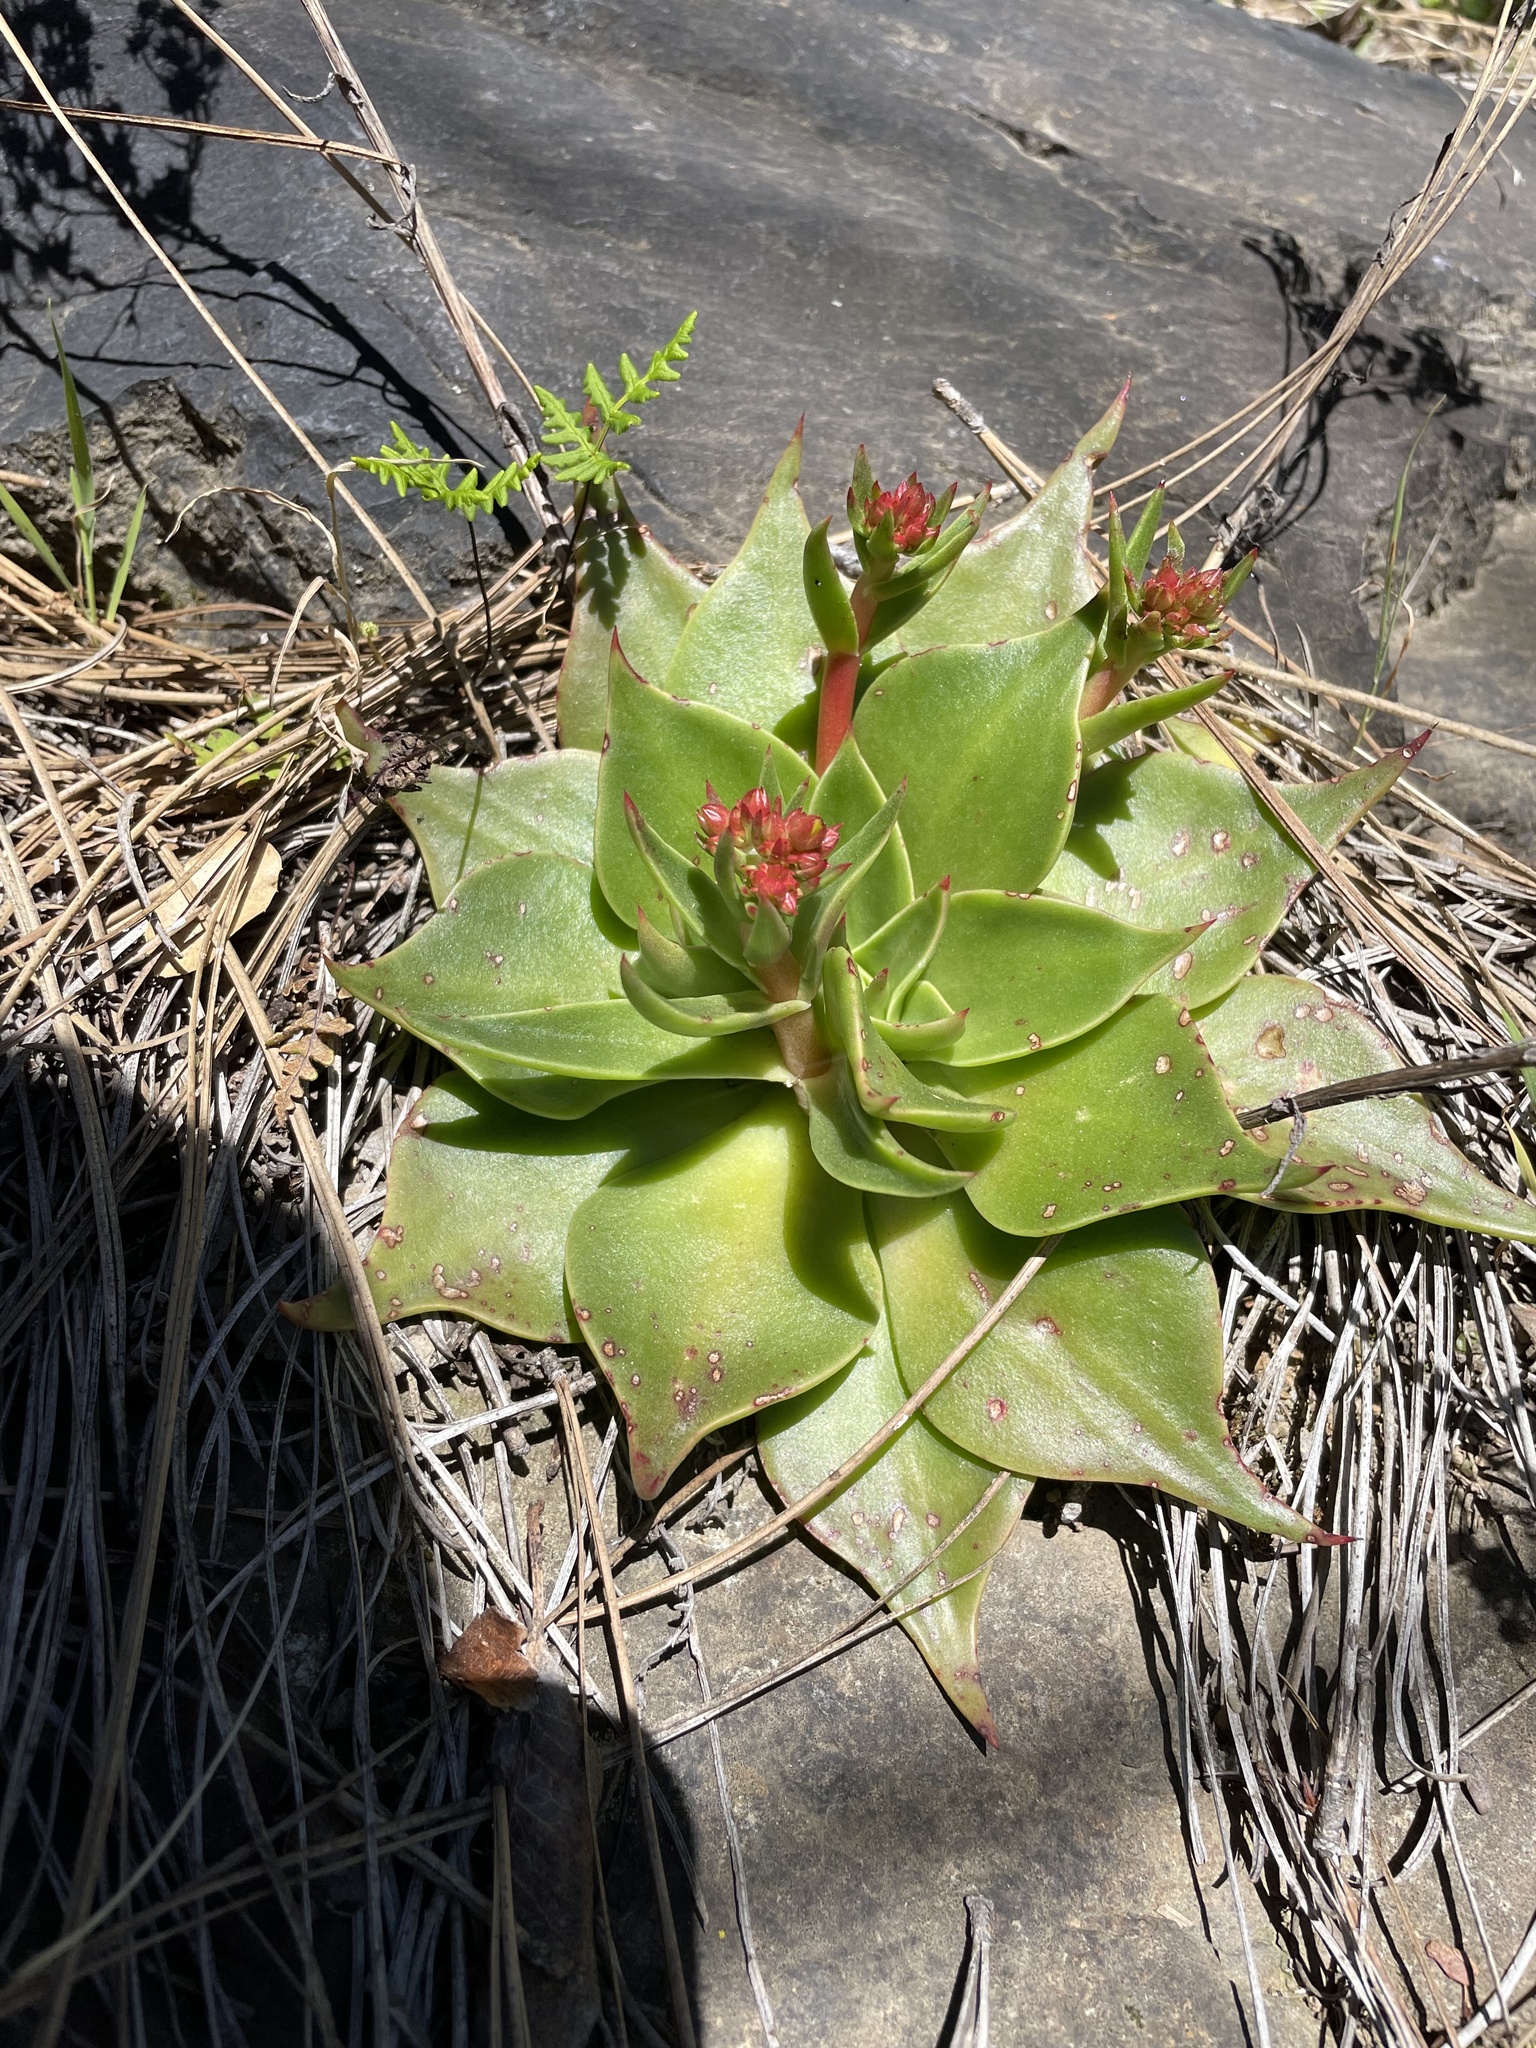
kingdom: Plantae
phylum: Tracheophyta
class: Magnoliopsida
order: Saxifragales
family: Crassulaceae
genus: Dudleya
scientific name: Dudleya cymosa
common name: Canyon dudleya
